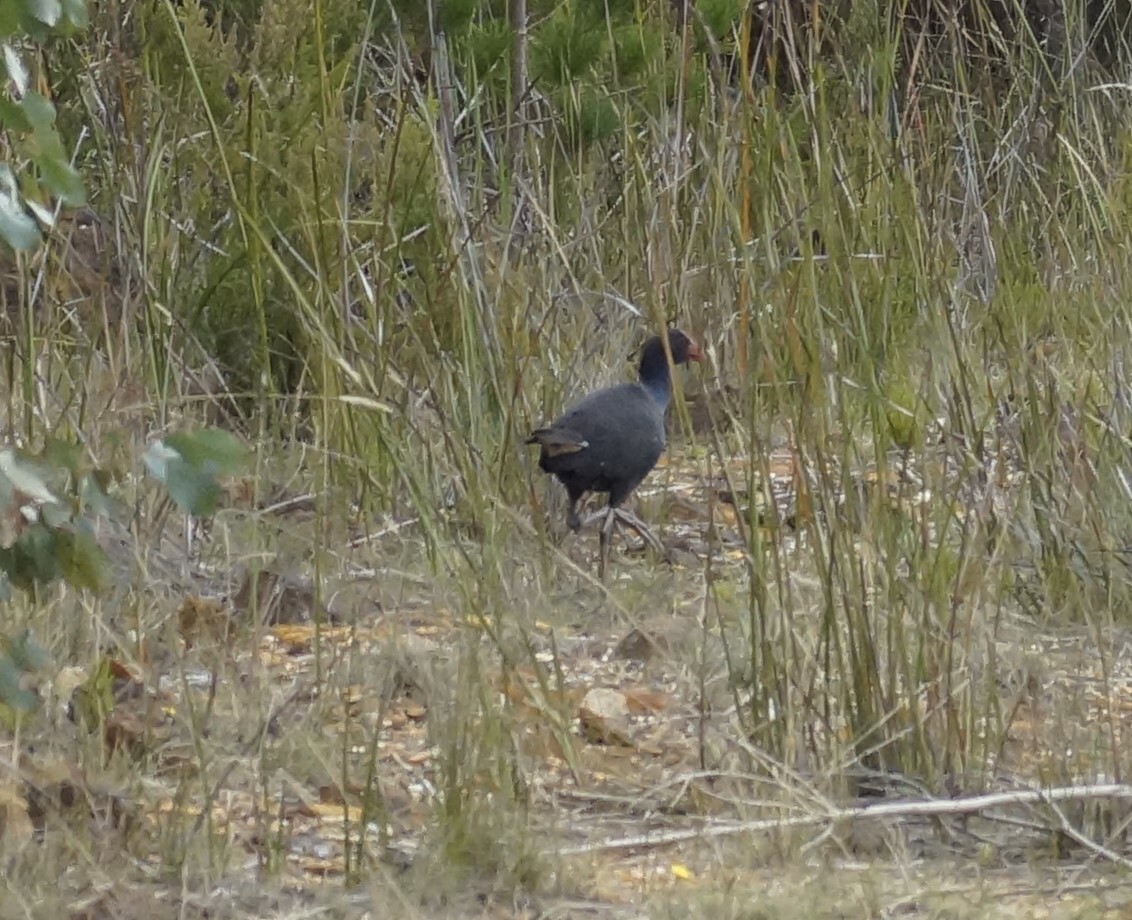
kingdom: Animalia
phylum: Chordata
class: Aves
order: Gruiformes
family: Rallidae
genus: Porphyrio
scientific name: Porphyrio melanotus
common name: Australasian swamphen
